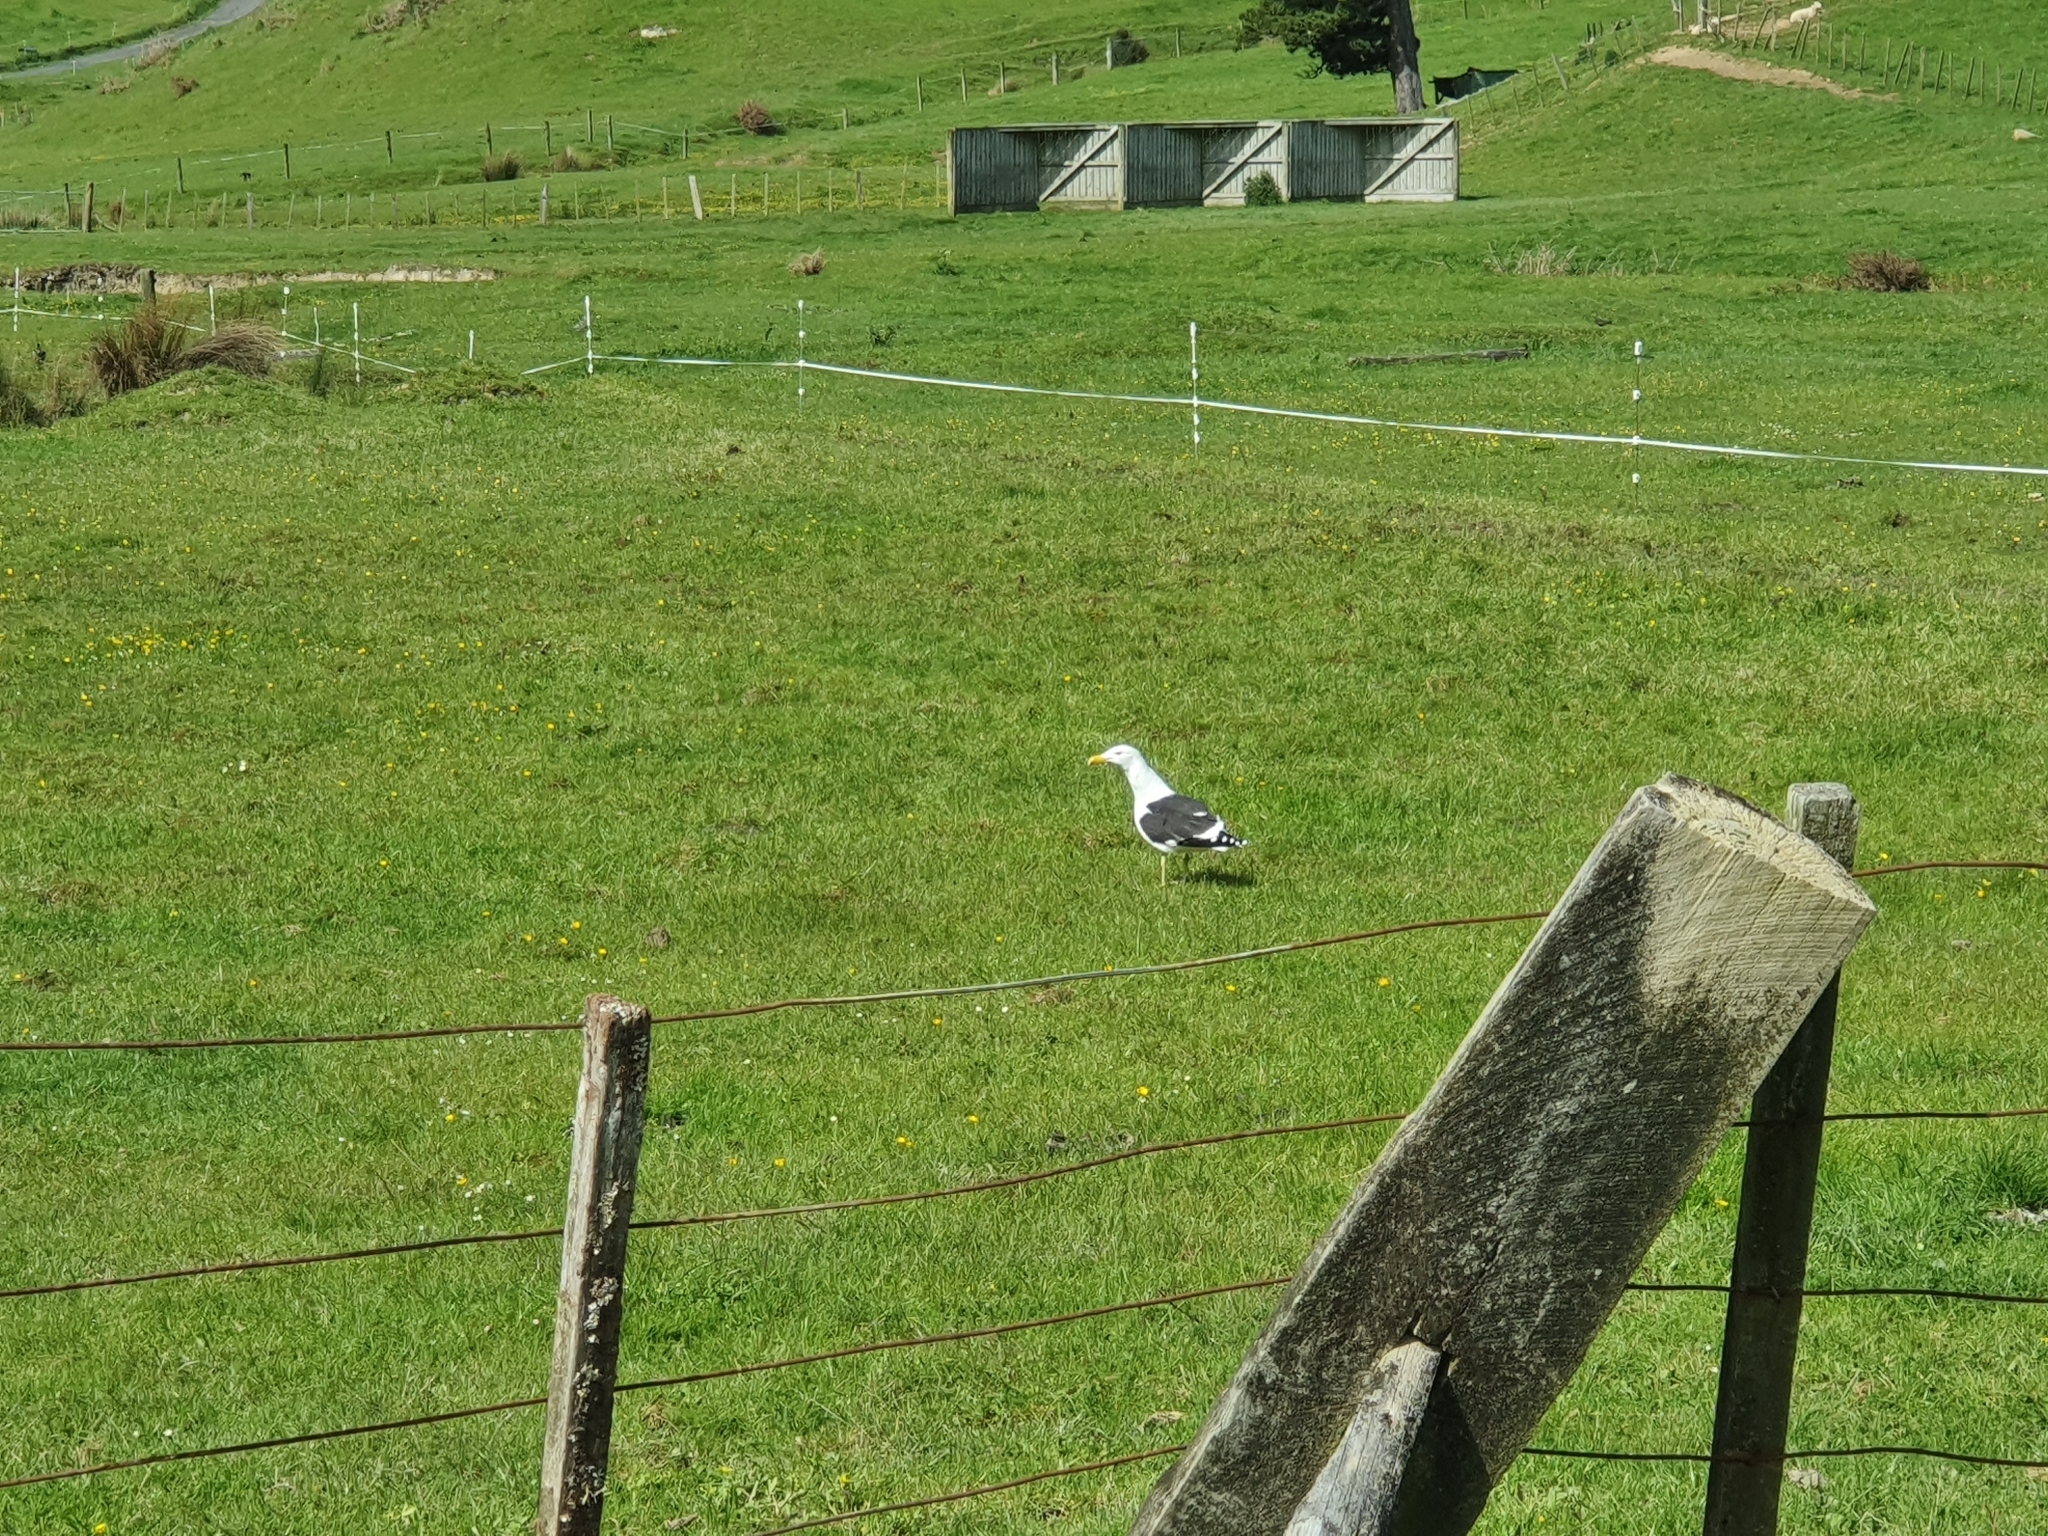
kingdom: Animalia
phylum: Chordata
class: Aves
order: Charadriiformes
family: Laridae
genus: Larus
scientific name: Larus dominicanus
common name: Kelp gull
